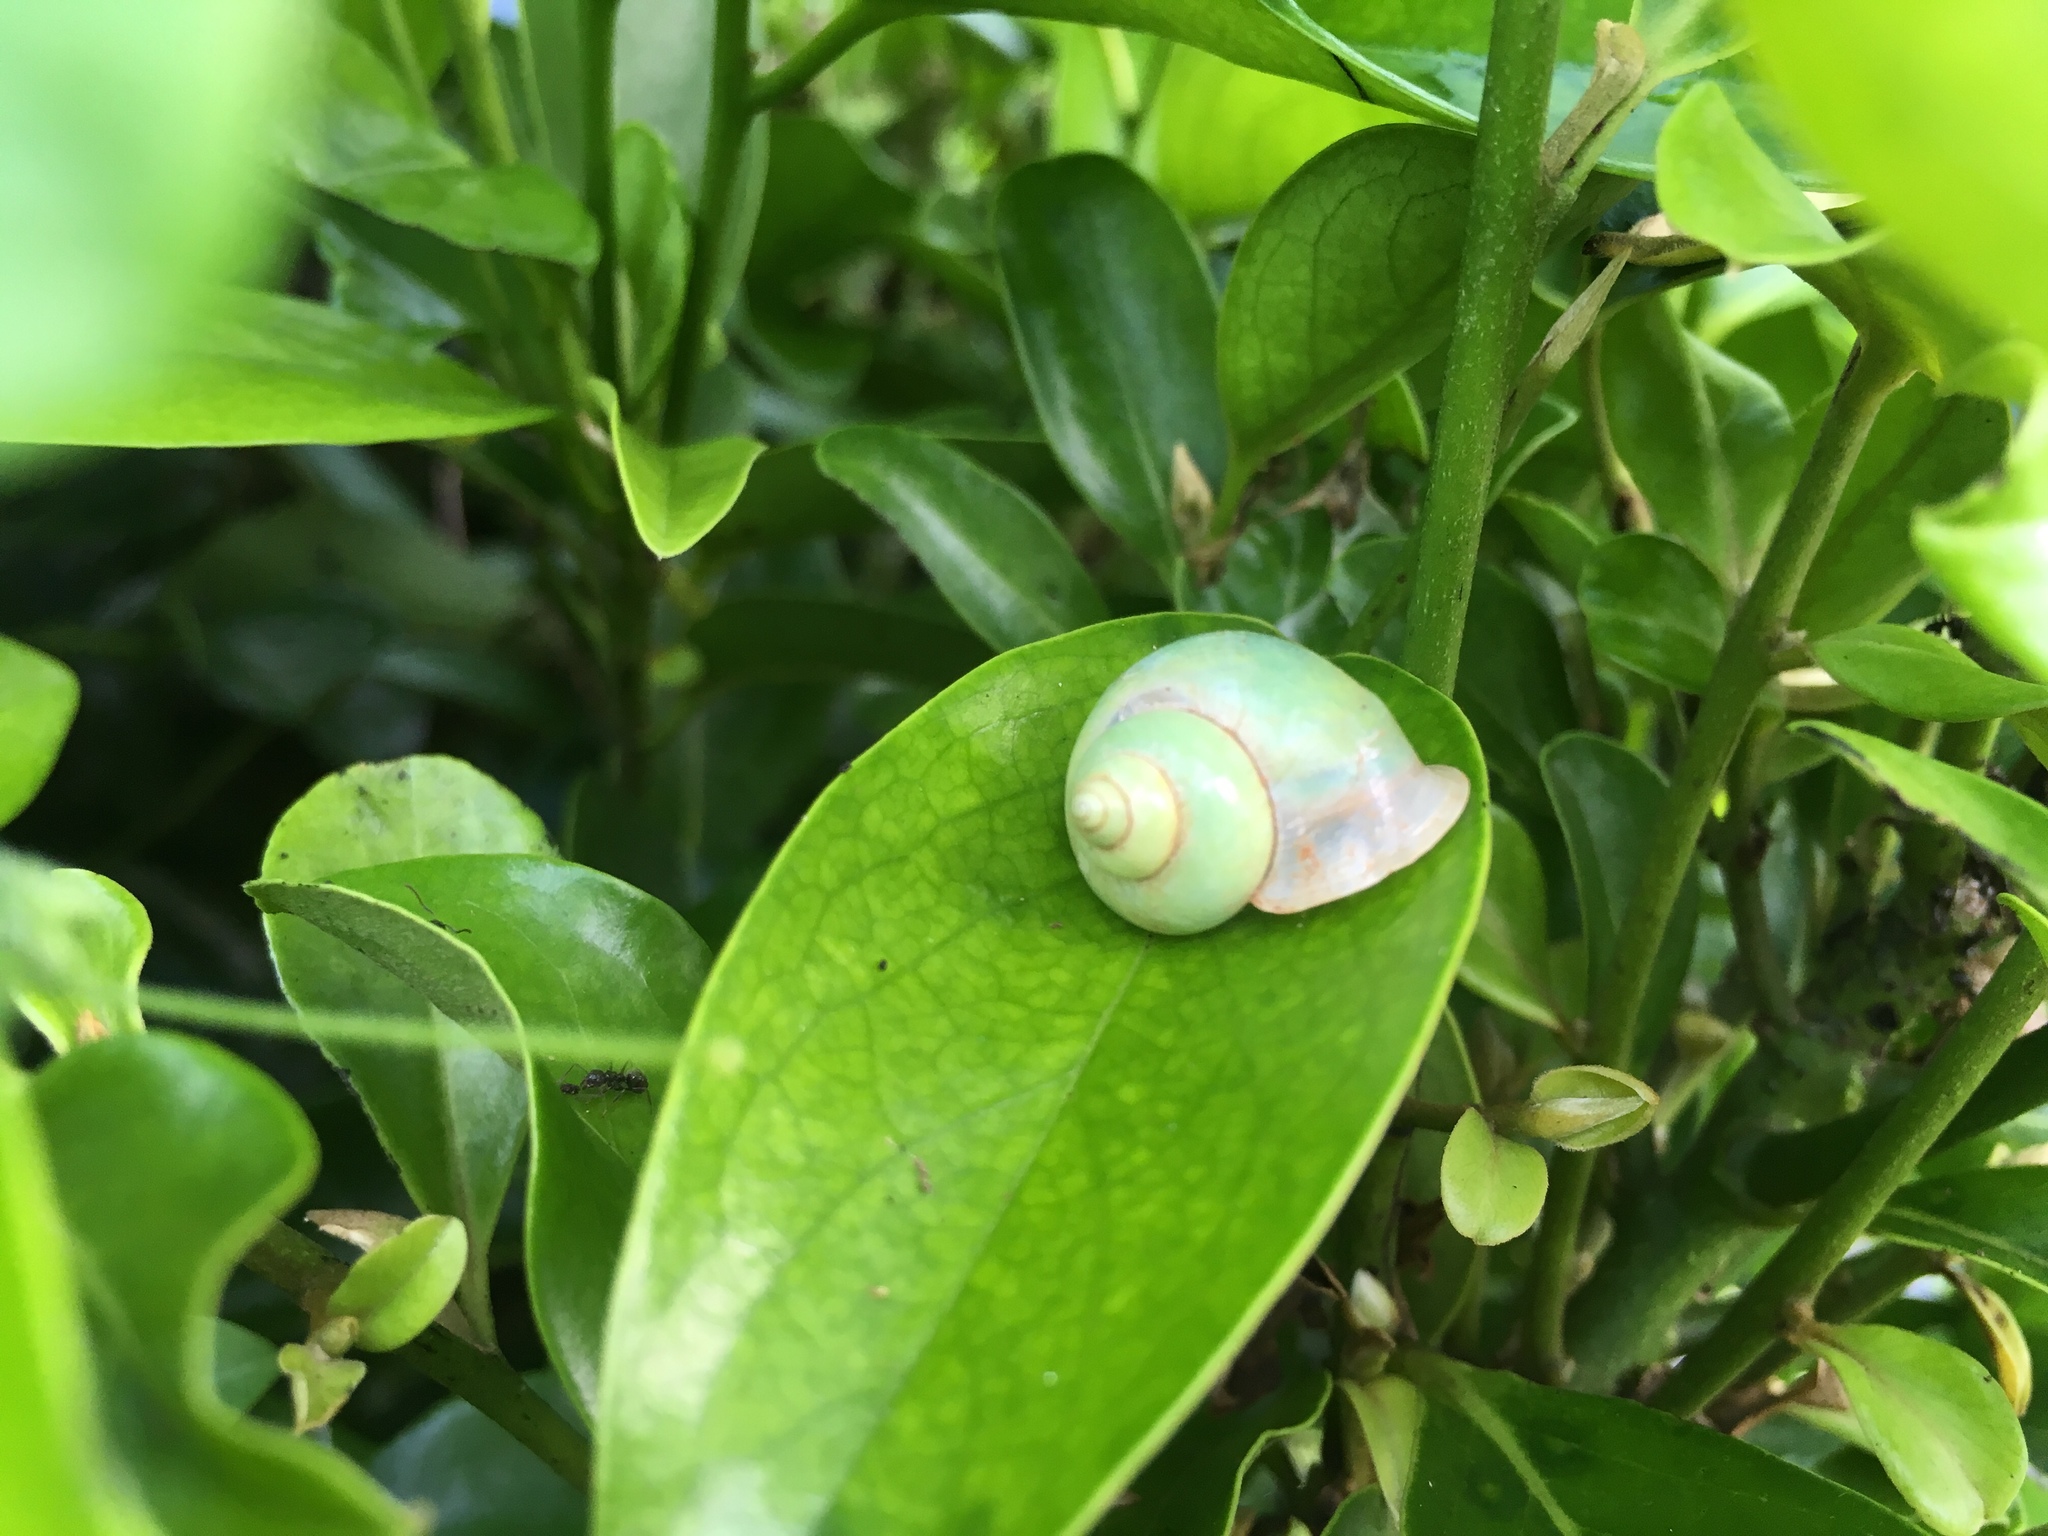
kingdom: Animalia
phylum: Mollusca
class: Gastropoda
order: Architaenioglossa
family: Cyclophoridae
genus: Leptopoma
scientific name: Leptopoma nitidum
